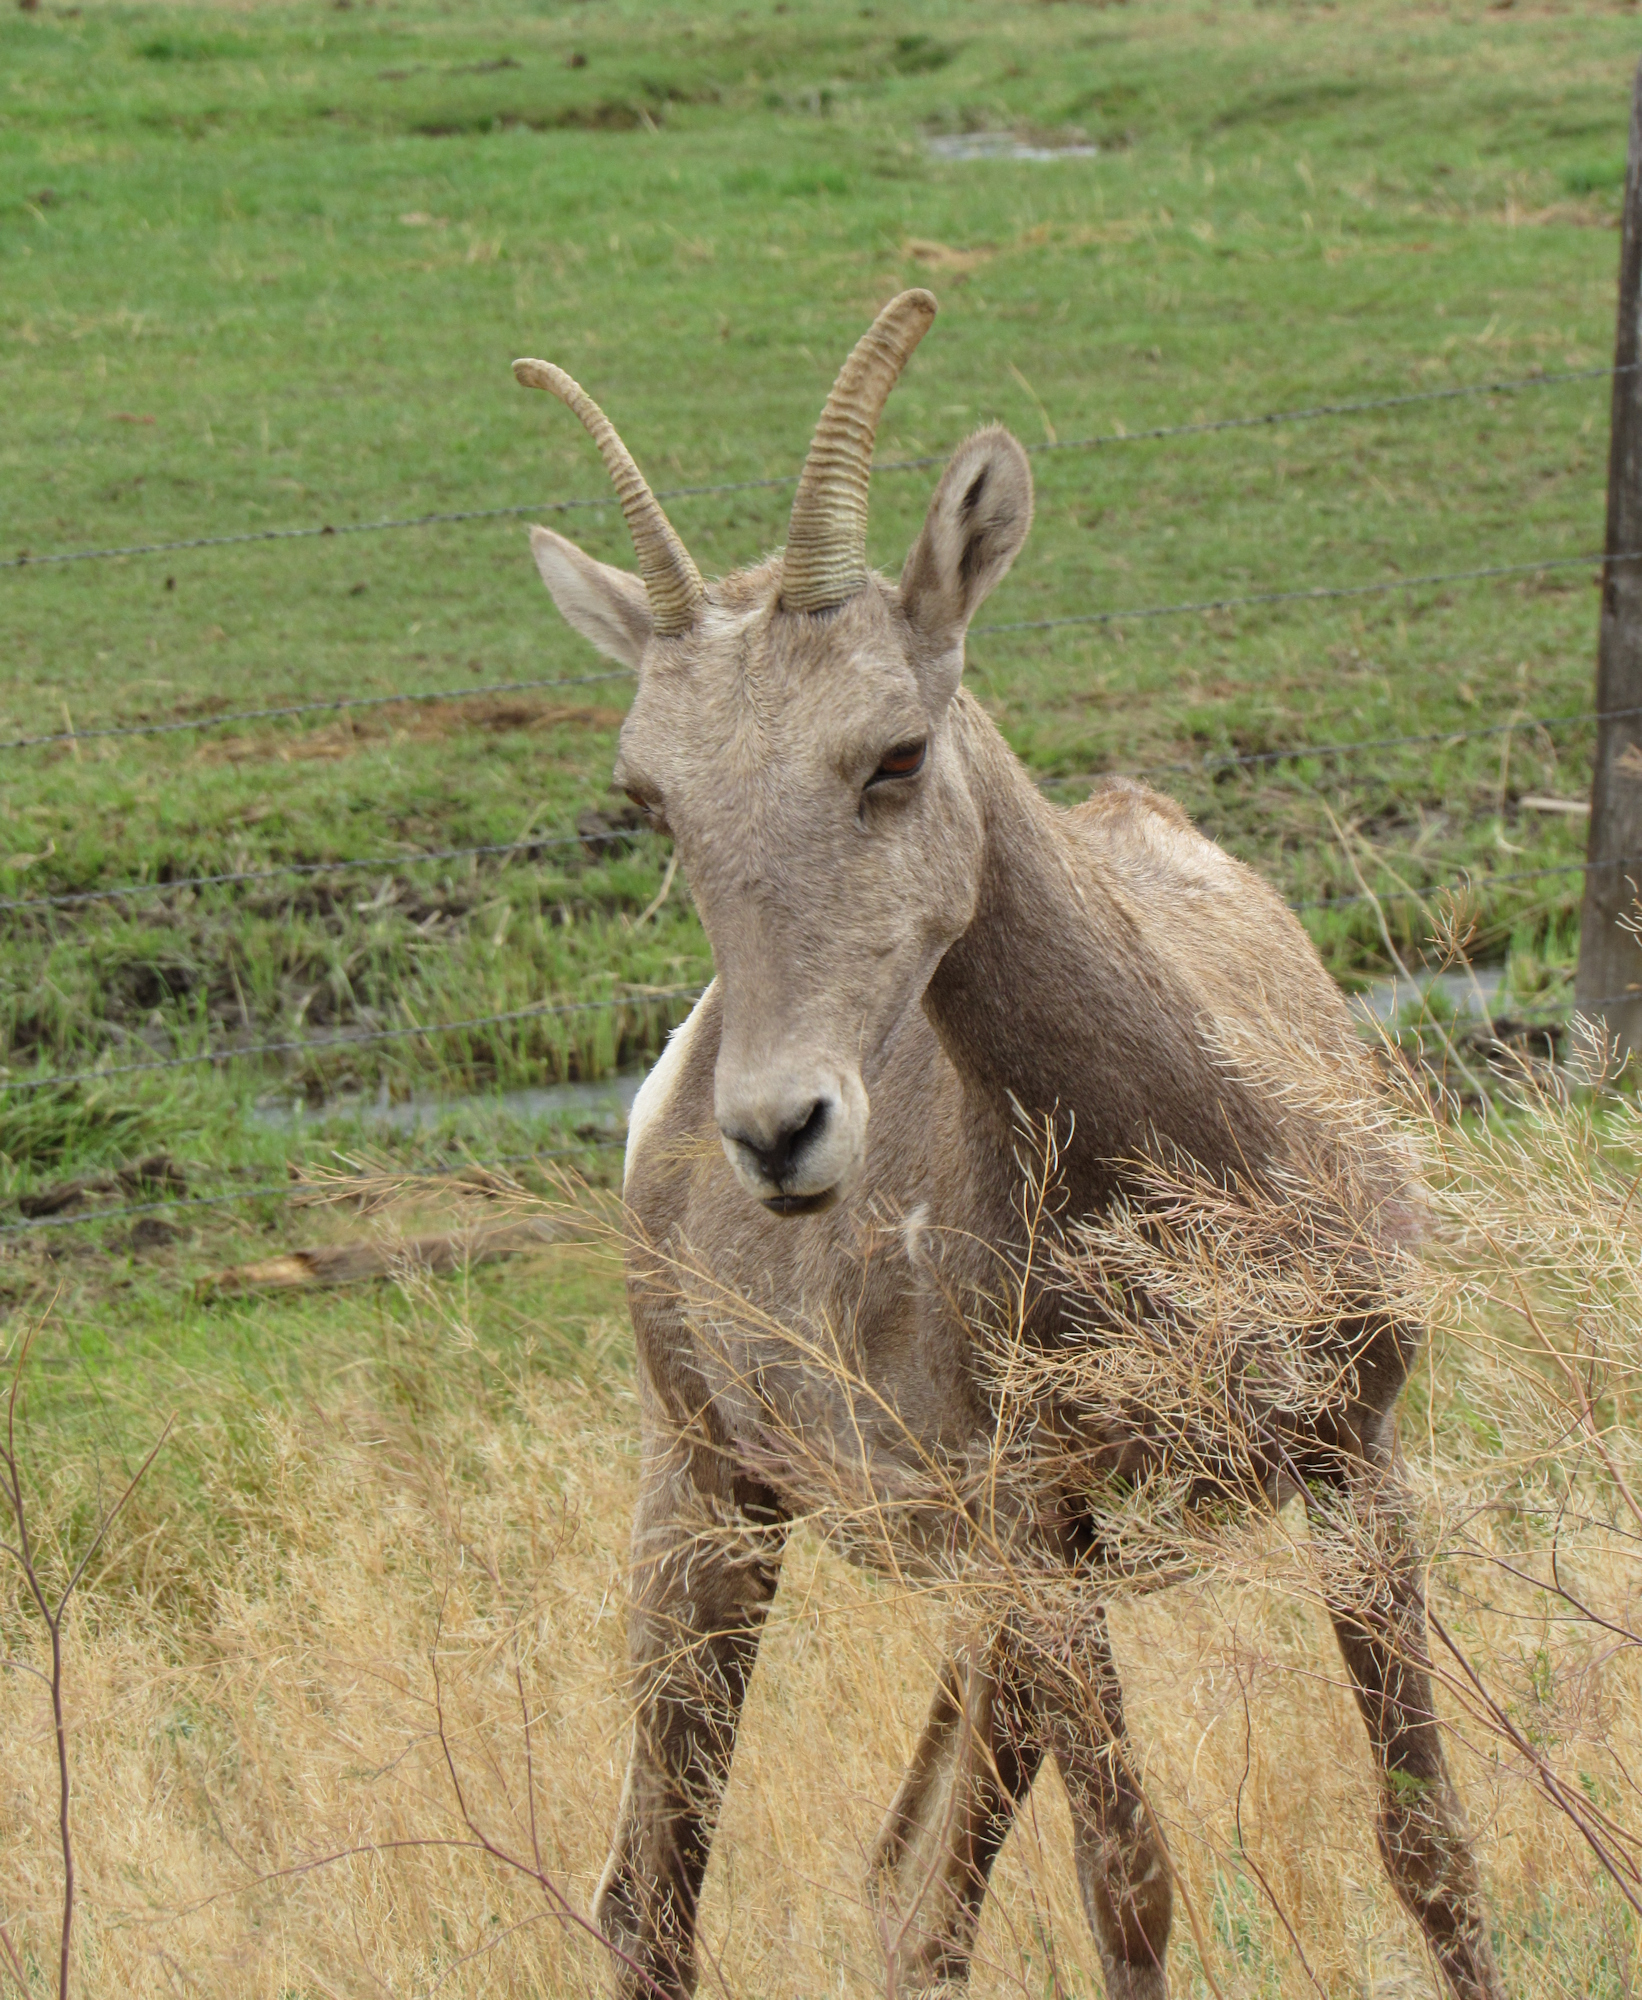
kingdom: Animalia
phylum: Chordata
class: Mammalia
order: Artiodactyla
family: Bovidae
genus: Ovis
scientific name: Ovis canadensis
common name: Bighorn sheep
